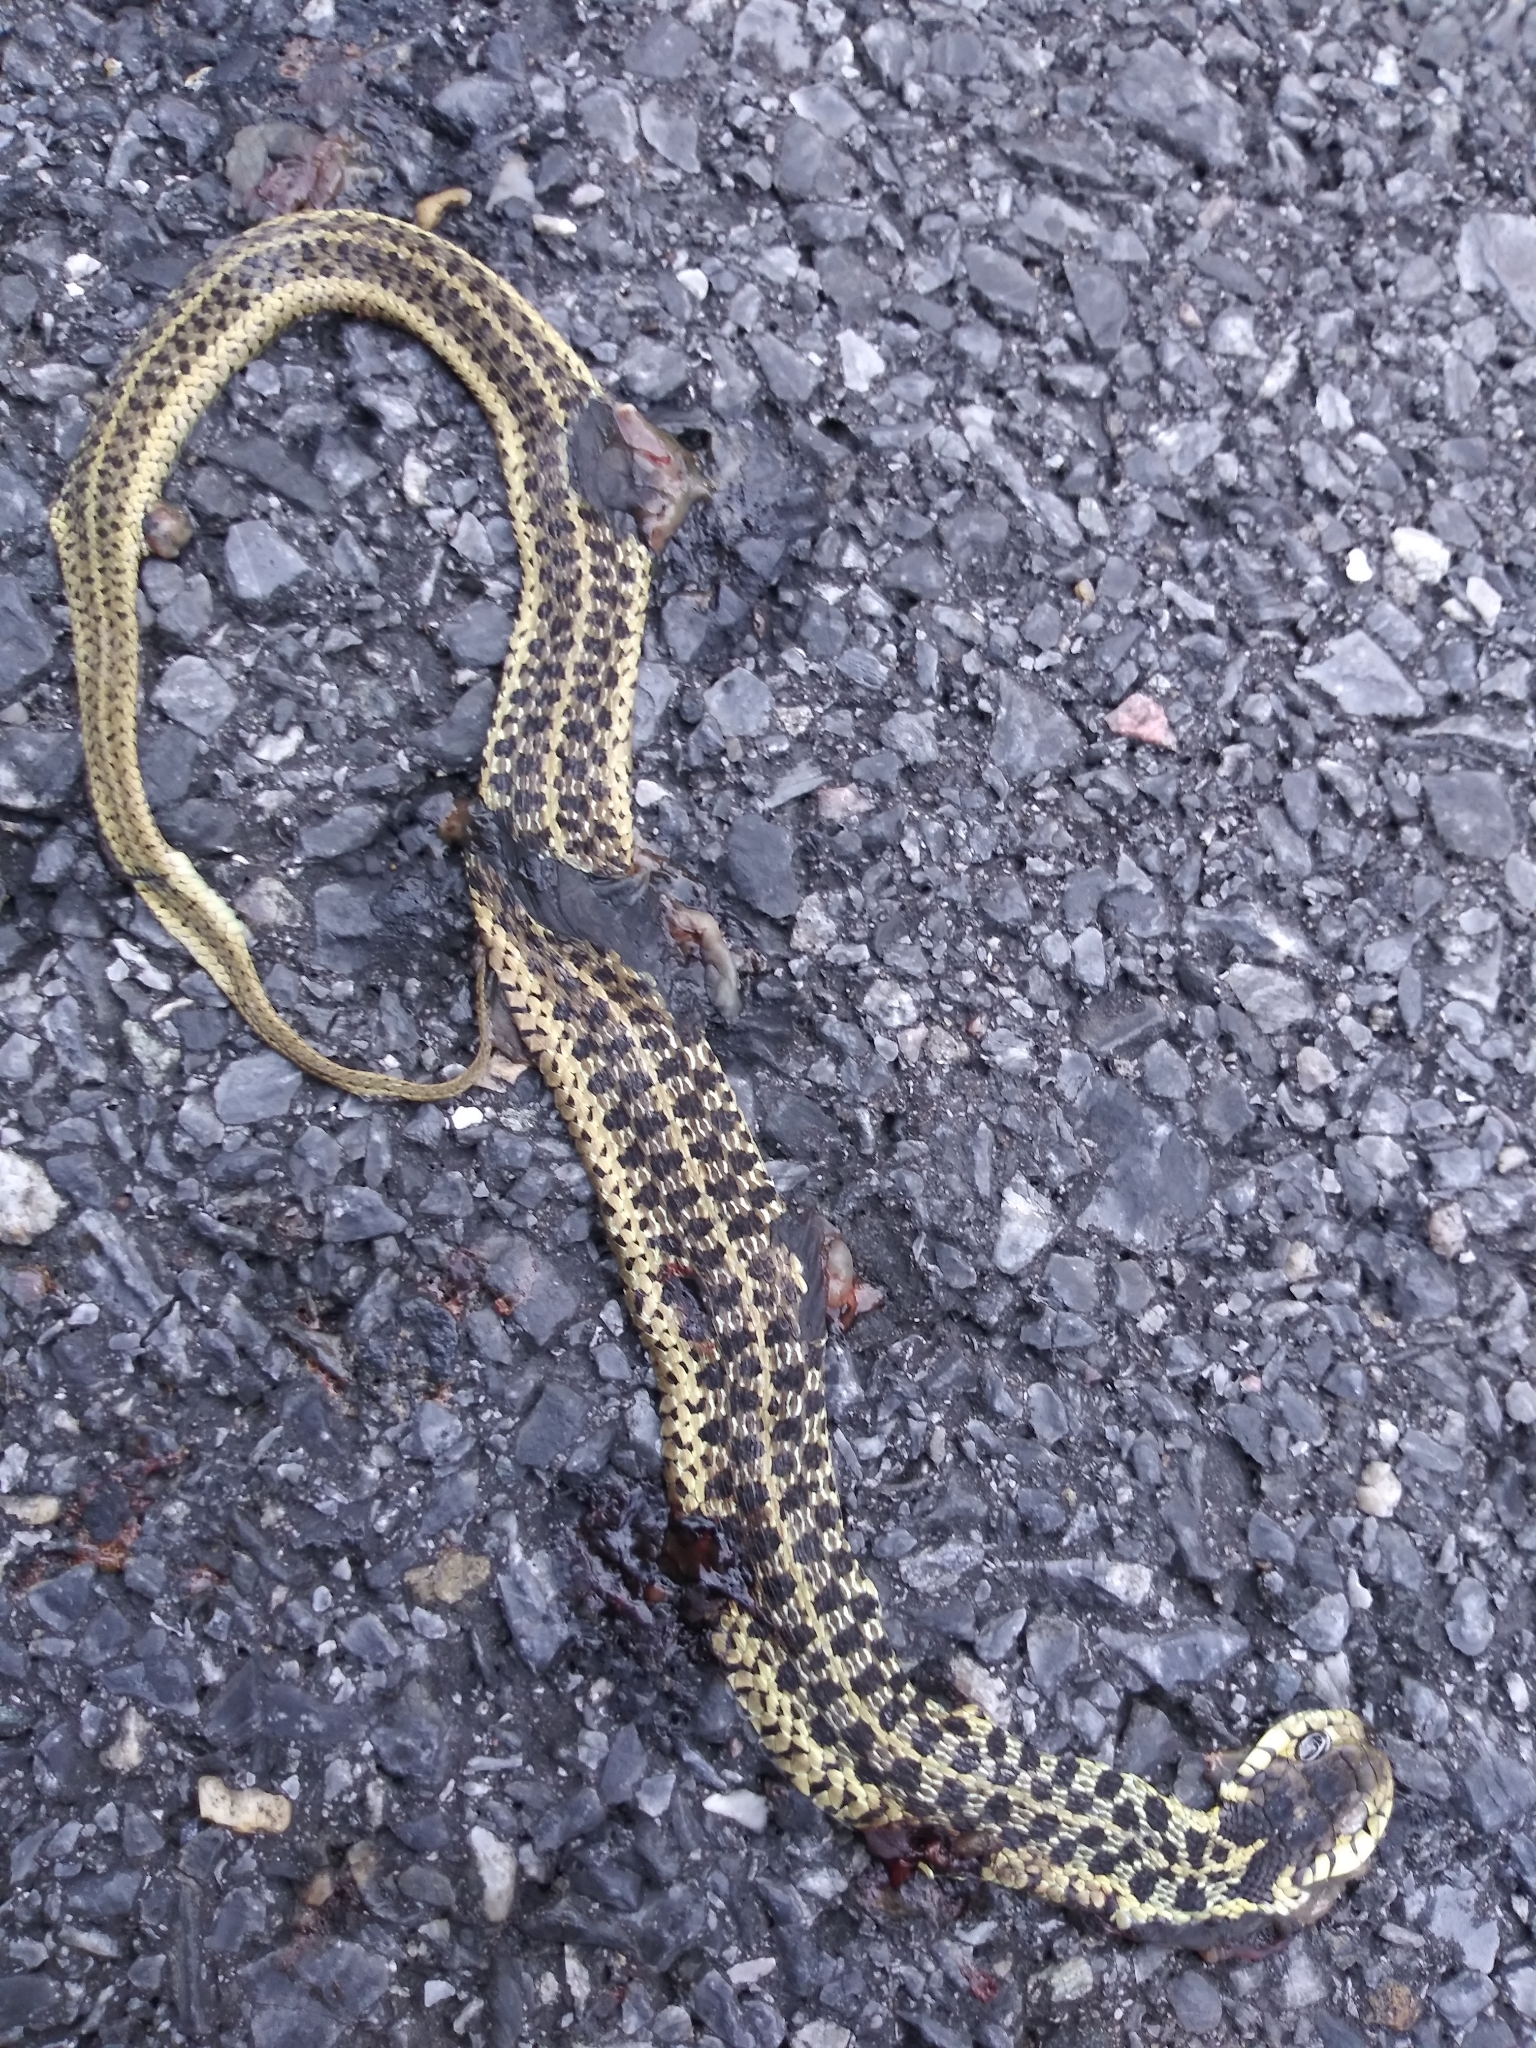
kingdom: Animalia
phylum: Chordata
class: Squamata
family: Colubridae
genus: Thamnophis
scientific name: Thamnophis sirtalis
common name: Common garter snake
